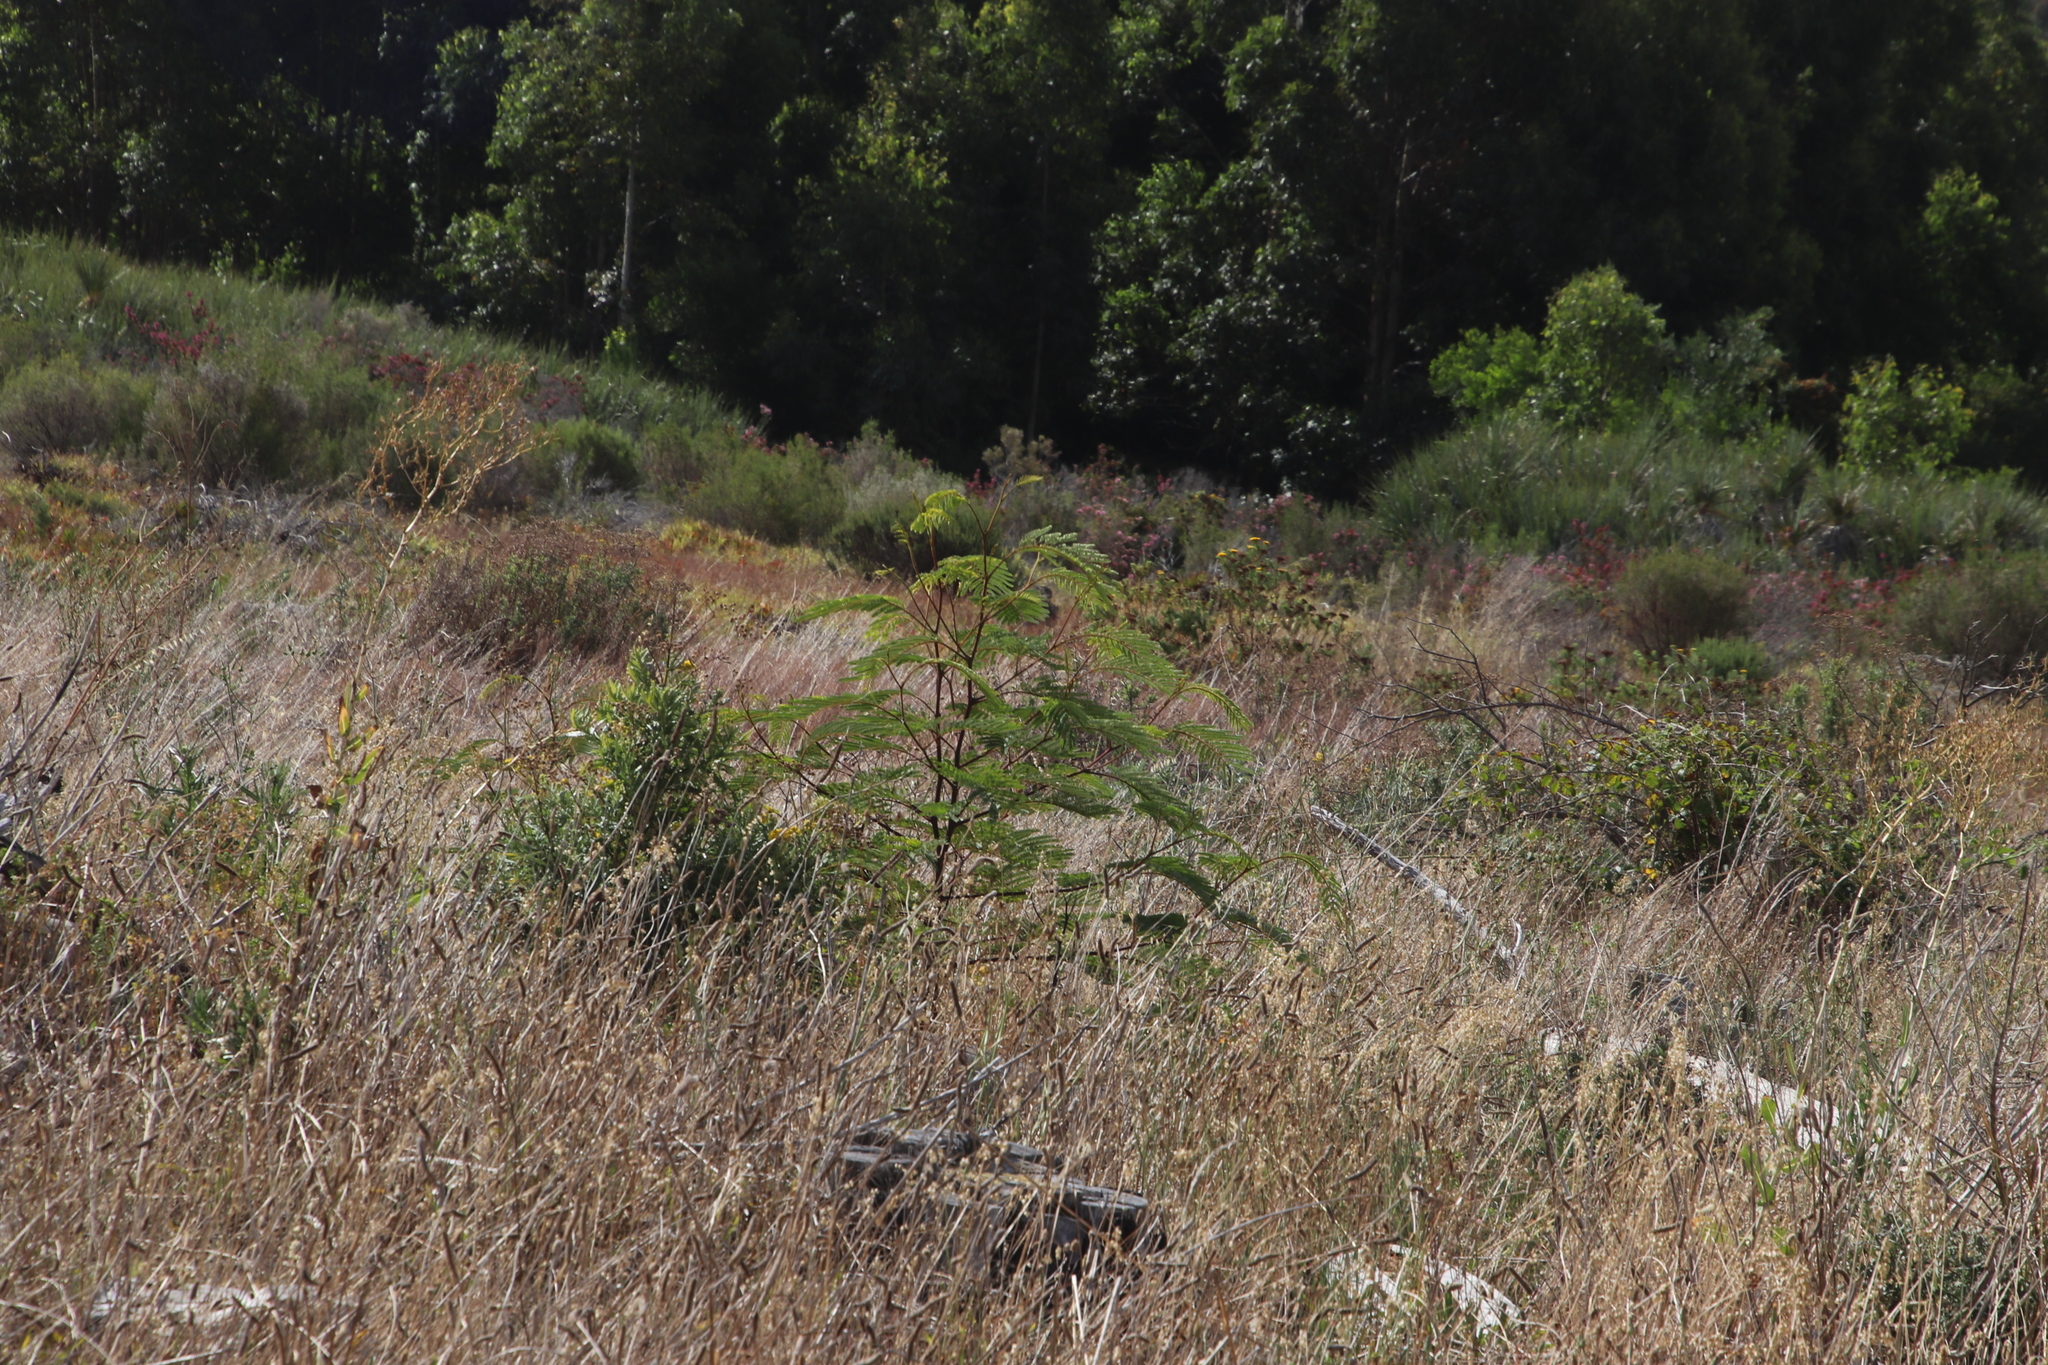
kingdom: Plantae
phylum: Tracheophyta
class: Magnoliopsida
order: Fabales
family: Fabaceae
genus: Paraserianthes
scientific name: Paraserianthes lophantha
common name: Plume albizia
